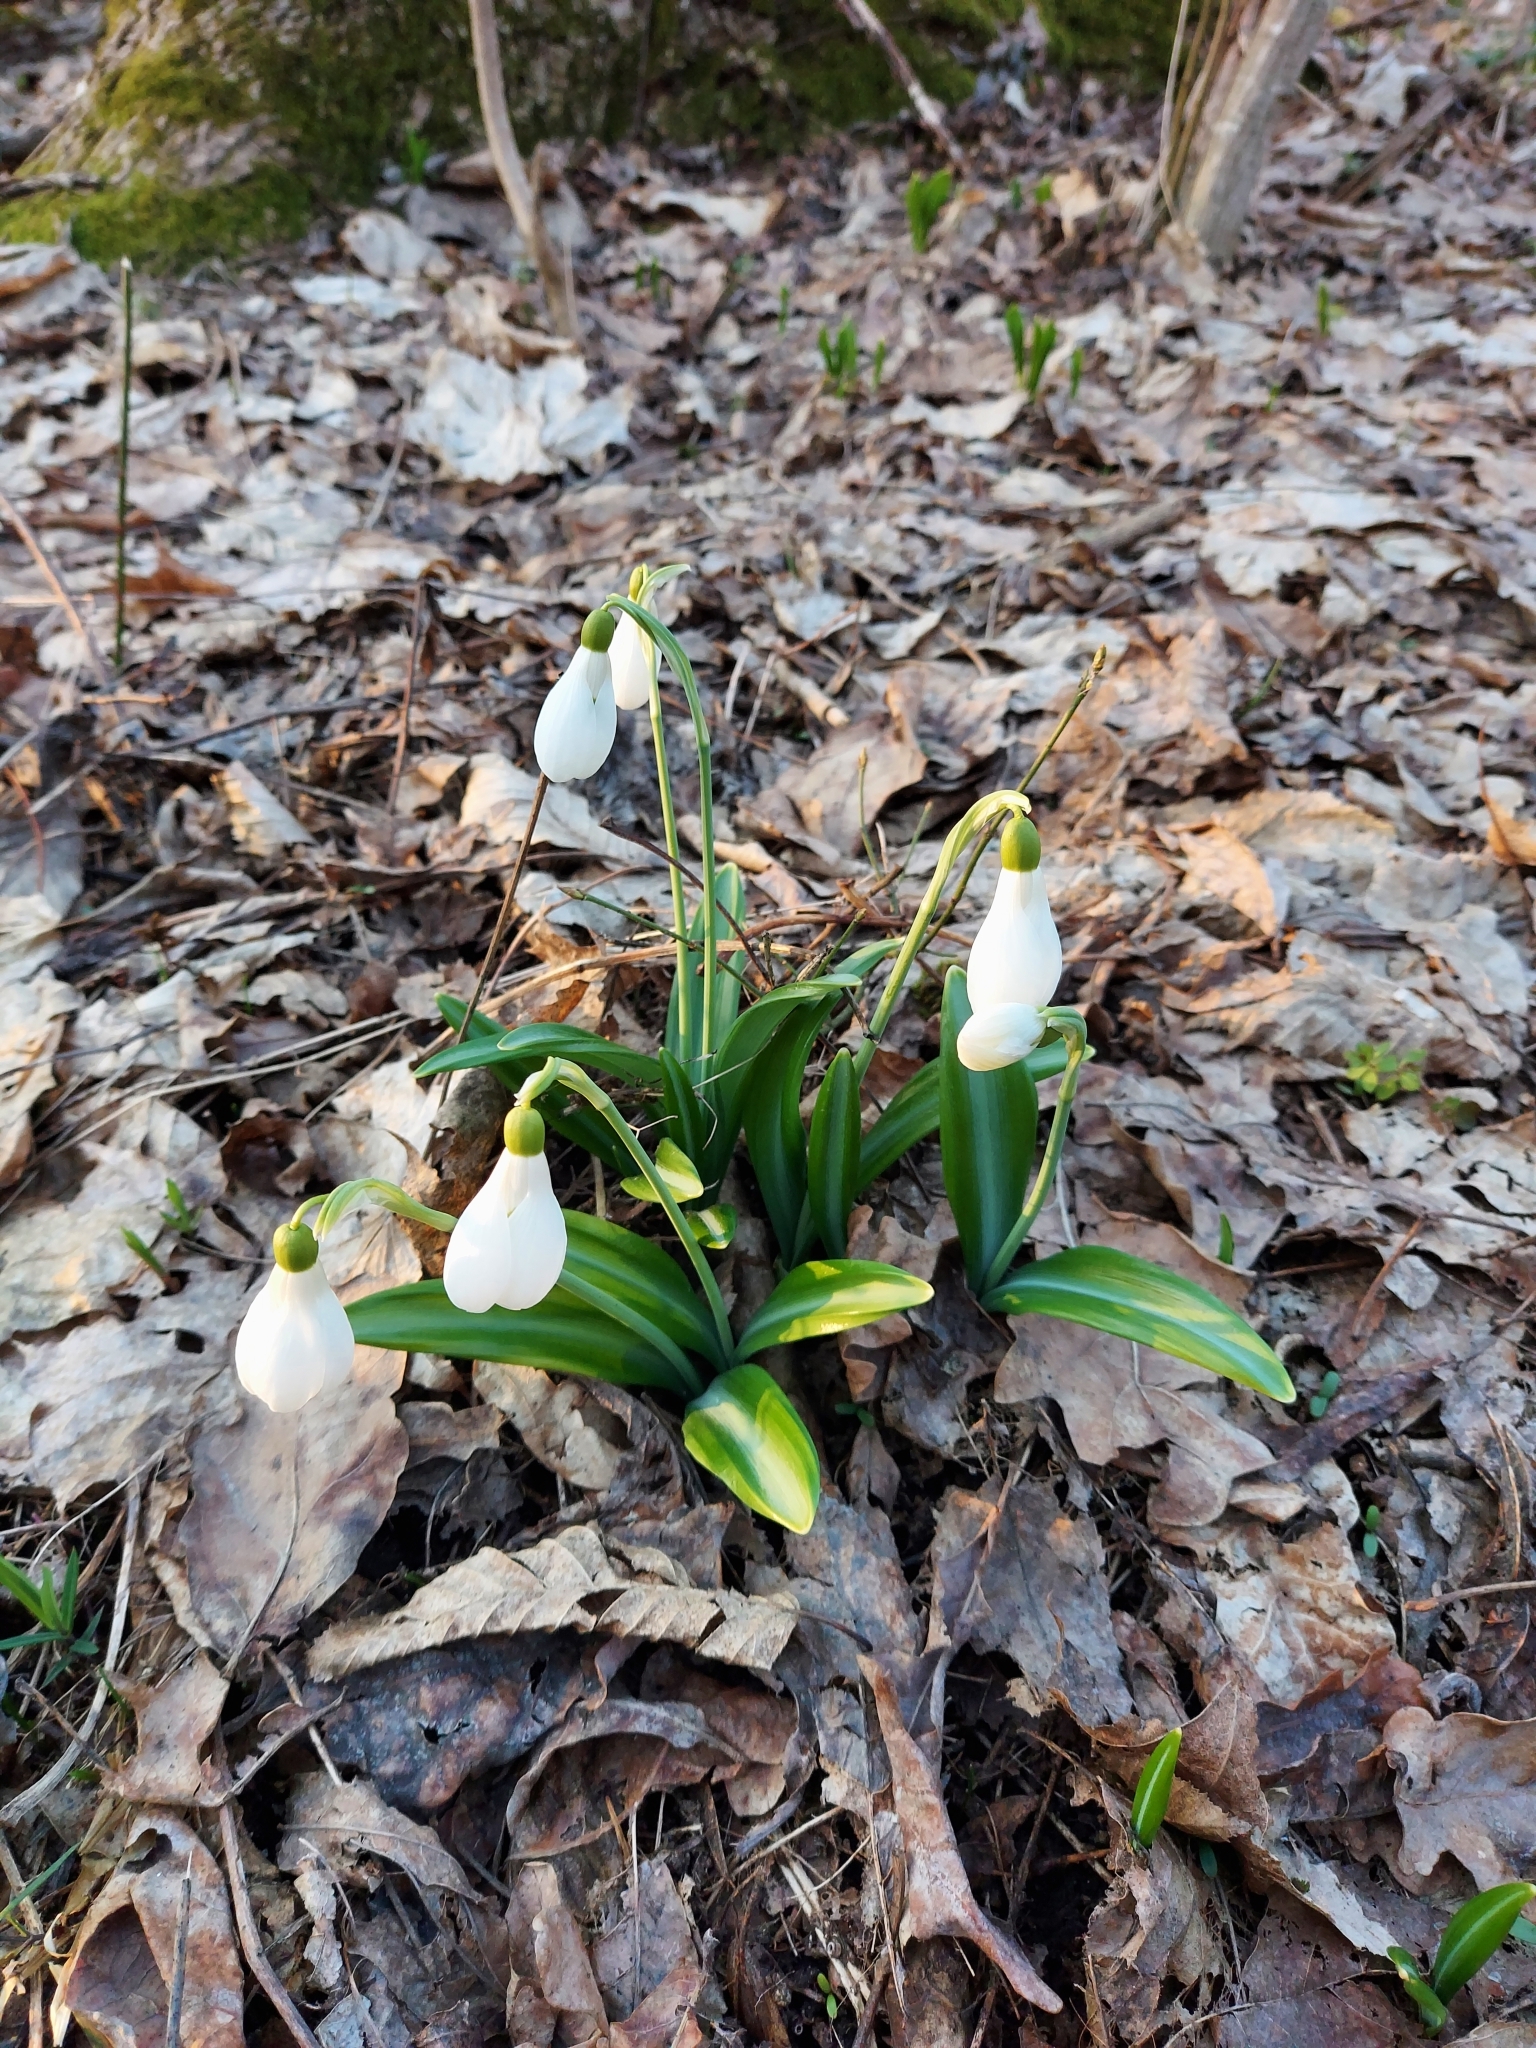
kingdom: Plantae
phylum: Tracheophyta
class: Liliopsida
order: Asparagales
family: Amaryllidaceae
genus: Galanthus
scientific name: Galanthus plicatus
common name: Pleated snowdrop
